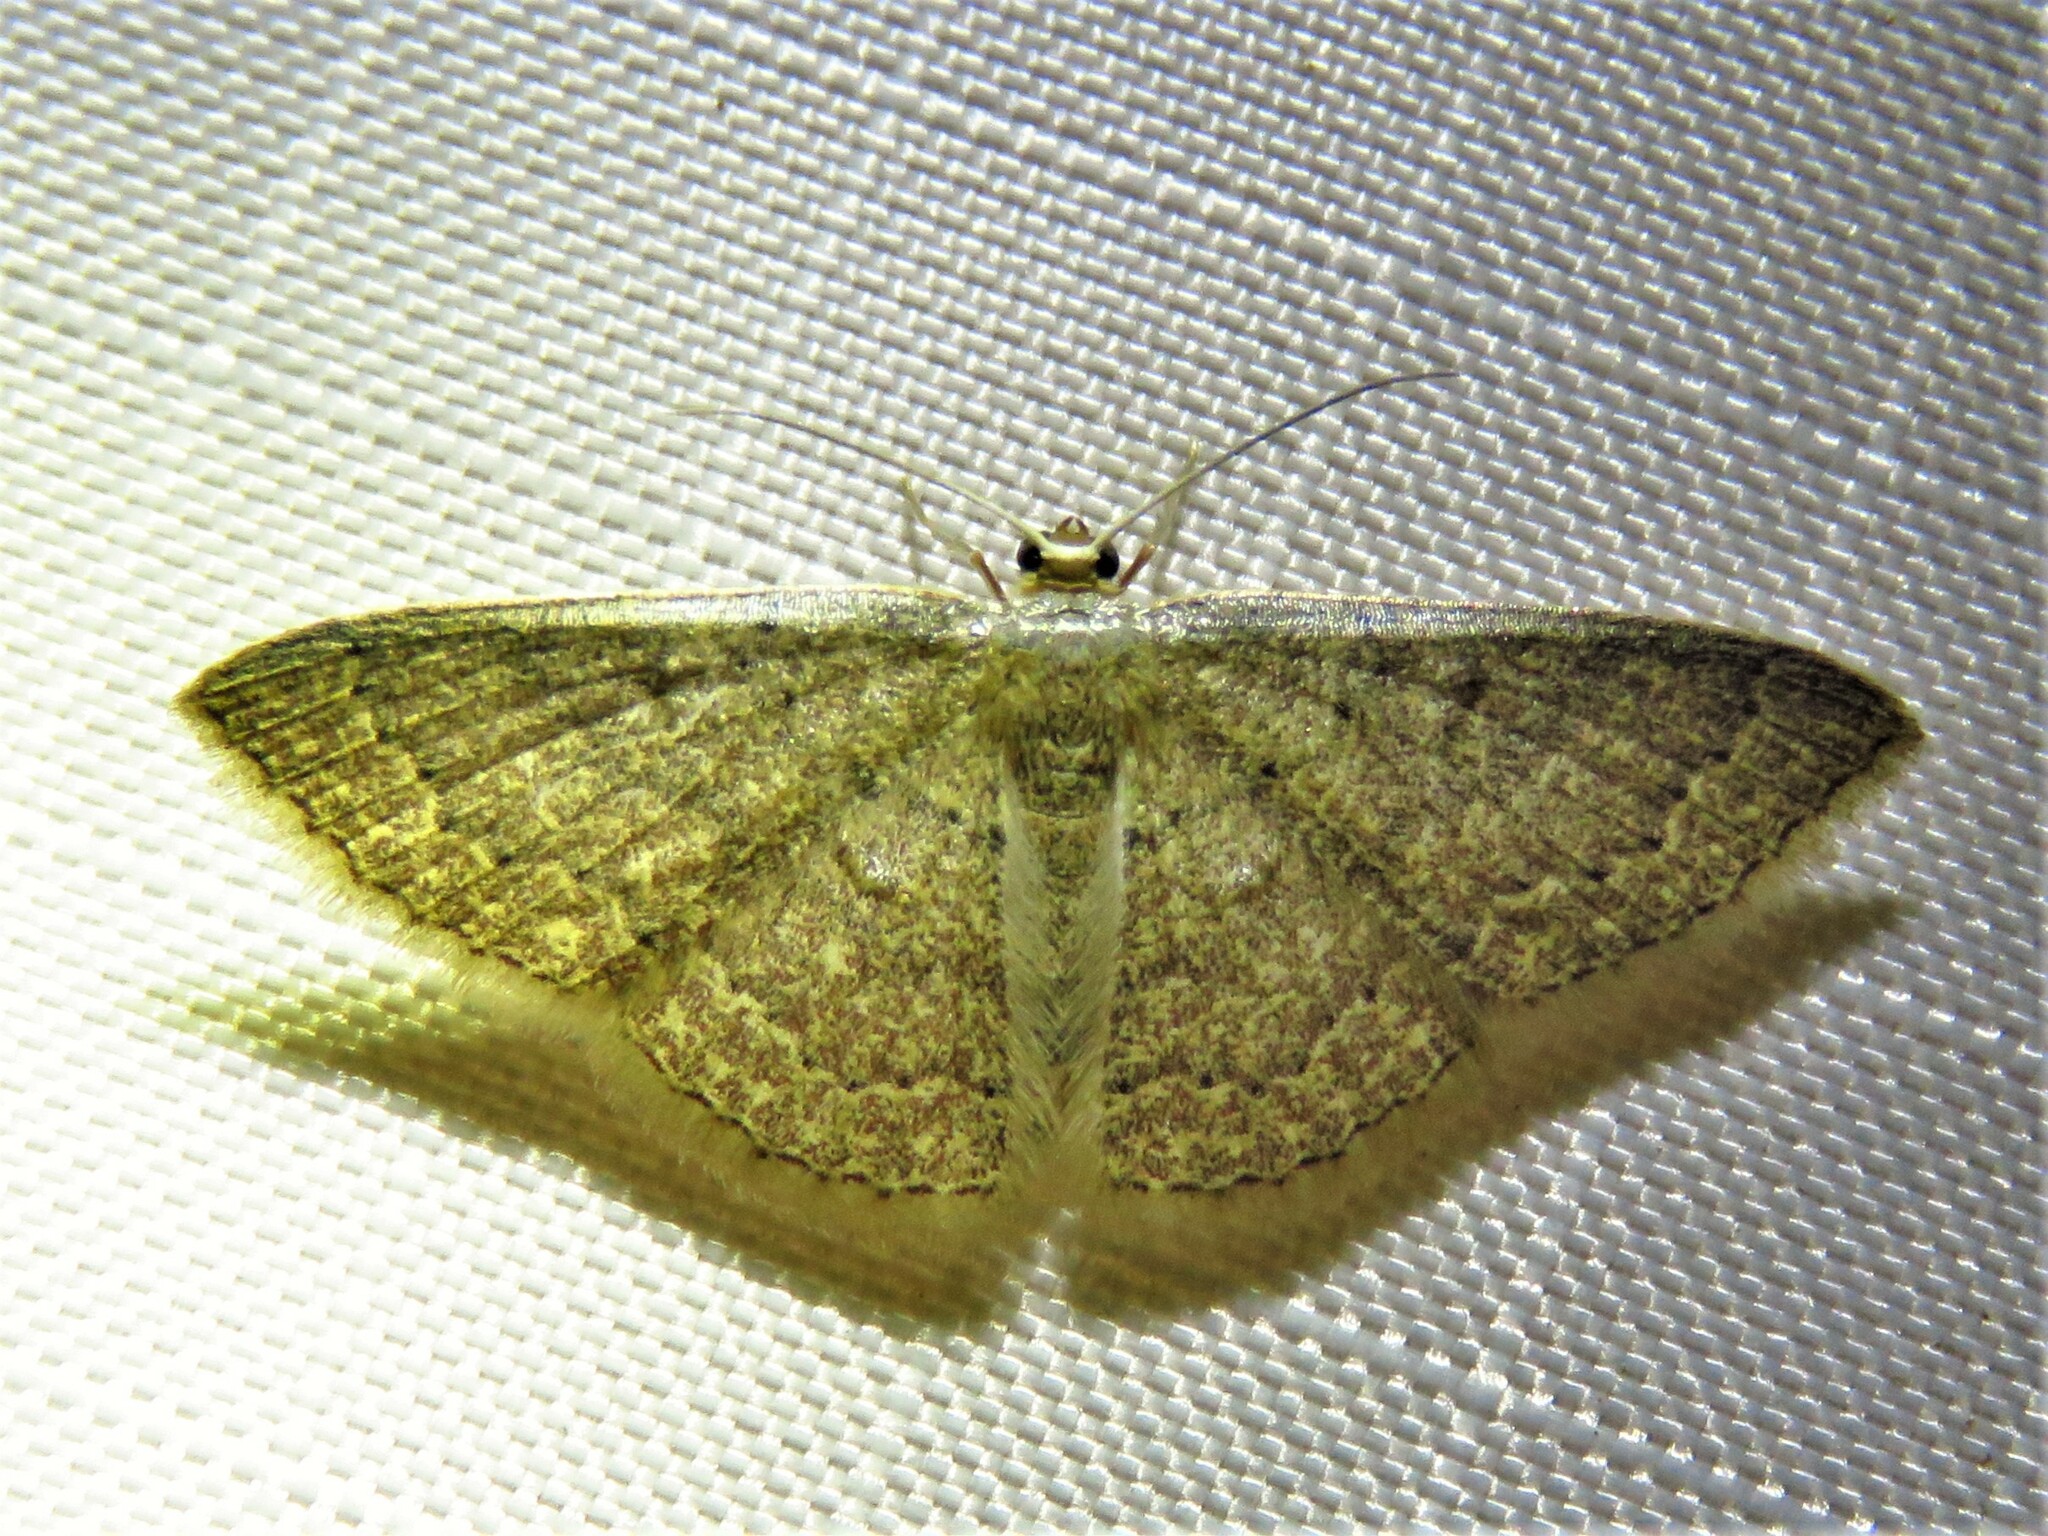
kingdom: Animalia
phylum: Arthropoda
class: Insecta
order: Lepidoptera
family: Geometridae
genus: Pleuroprucha
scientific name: Pleuroprucha insulsaria
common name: Common tan wave
